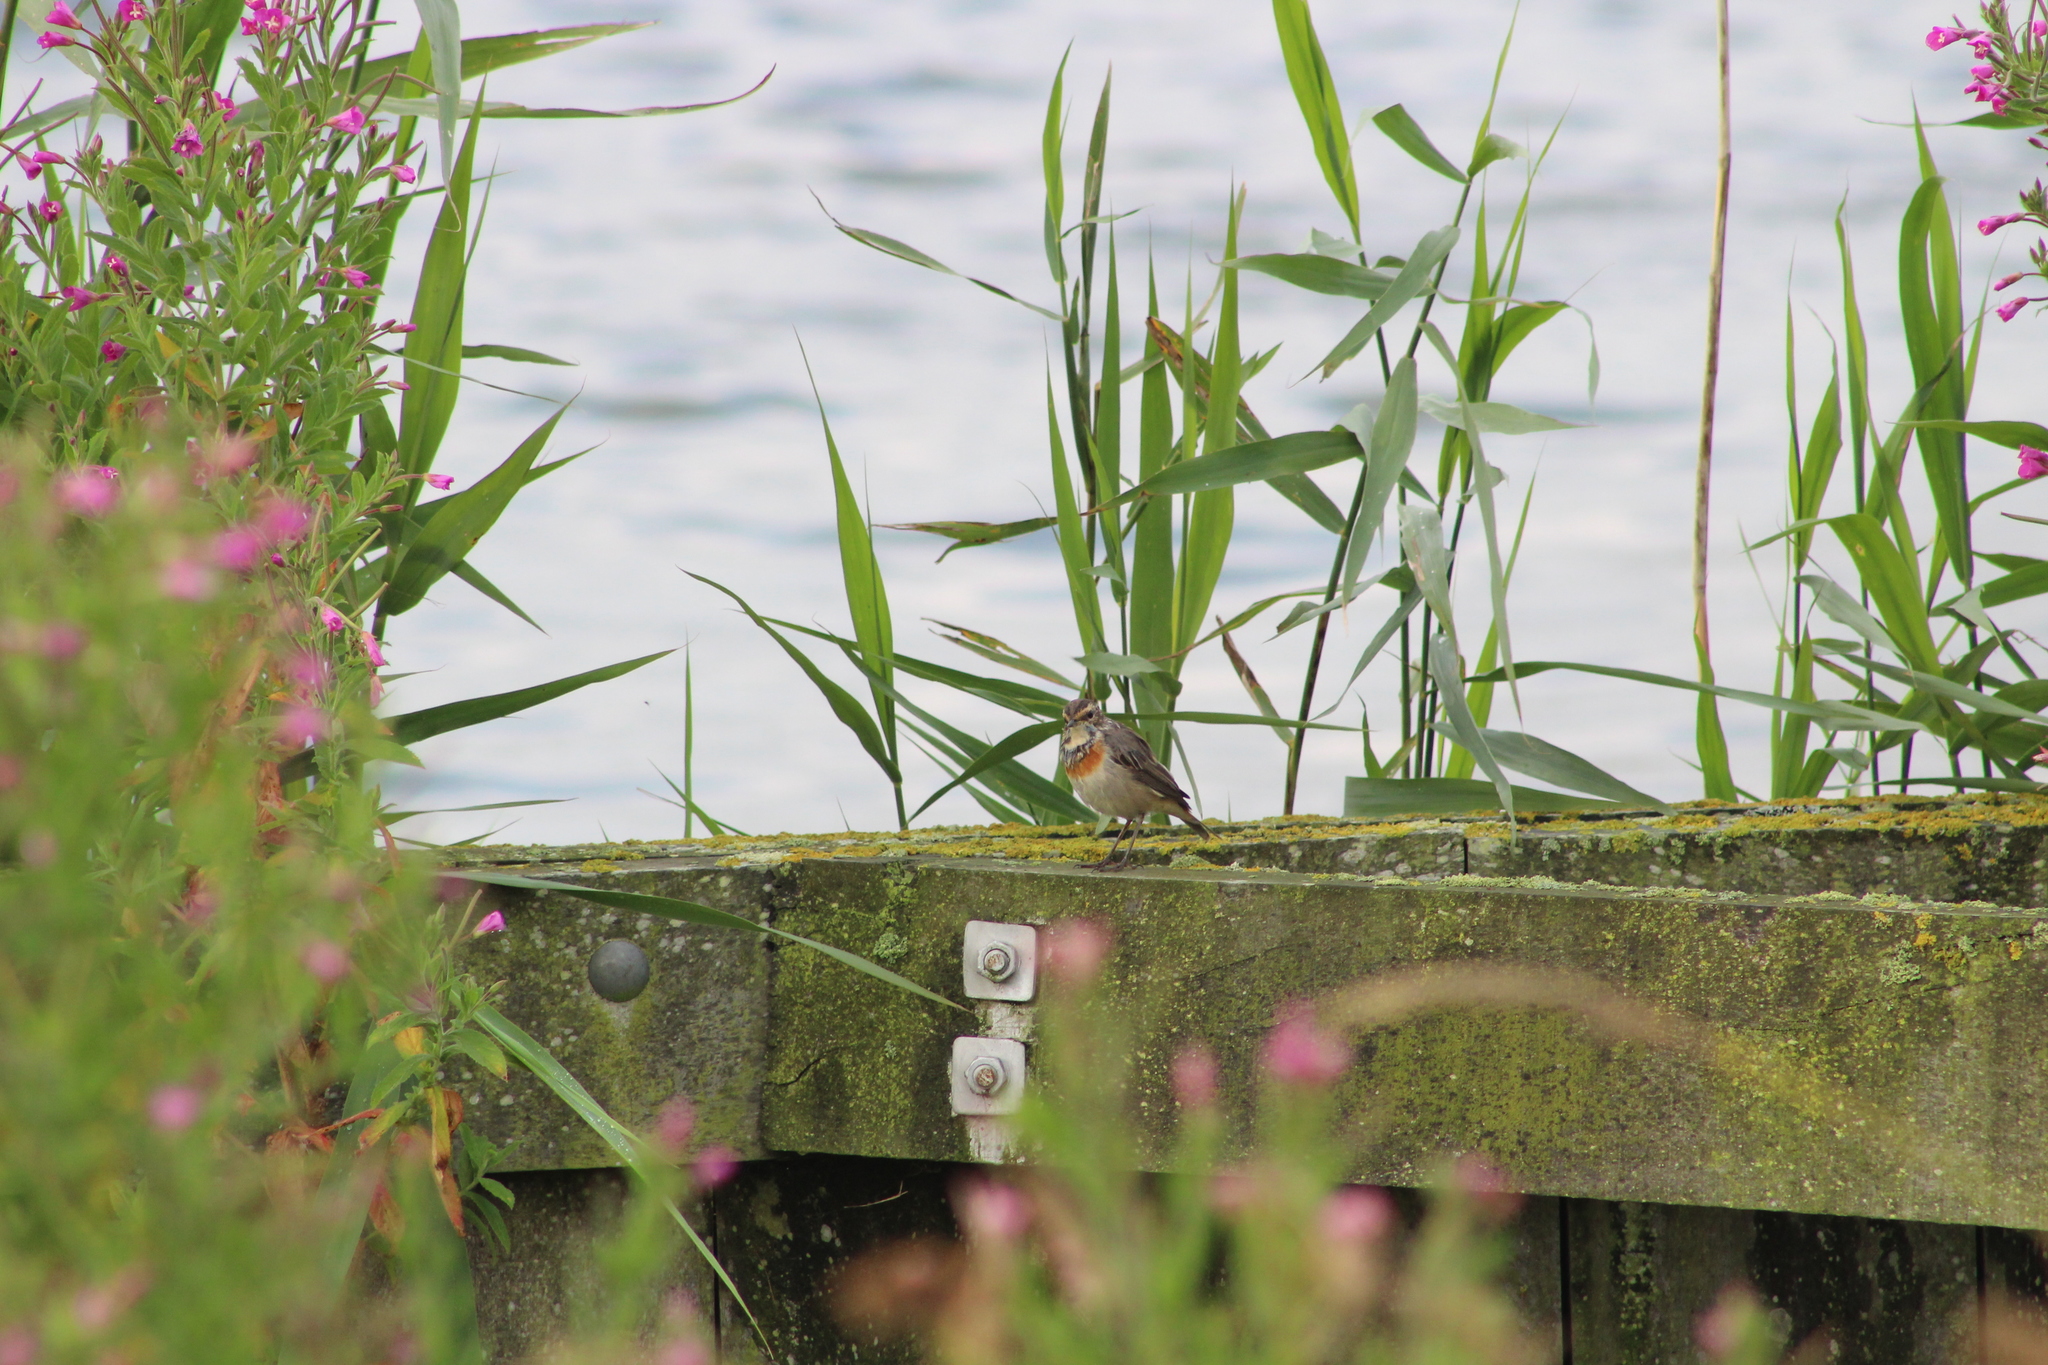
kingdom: Animalia
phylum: Chordata
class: Aves
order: Passeriformes
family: Muscicapidae
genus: Luscinia
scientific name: Luscinia svecica
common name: Bluethroat
